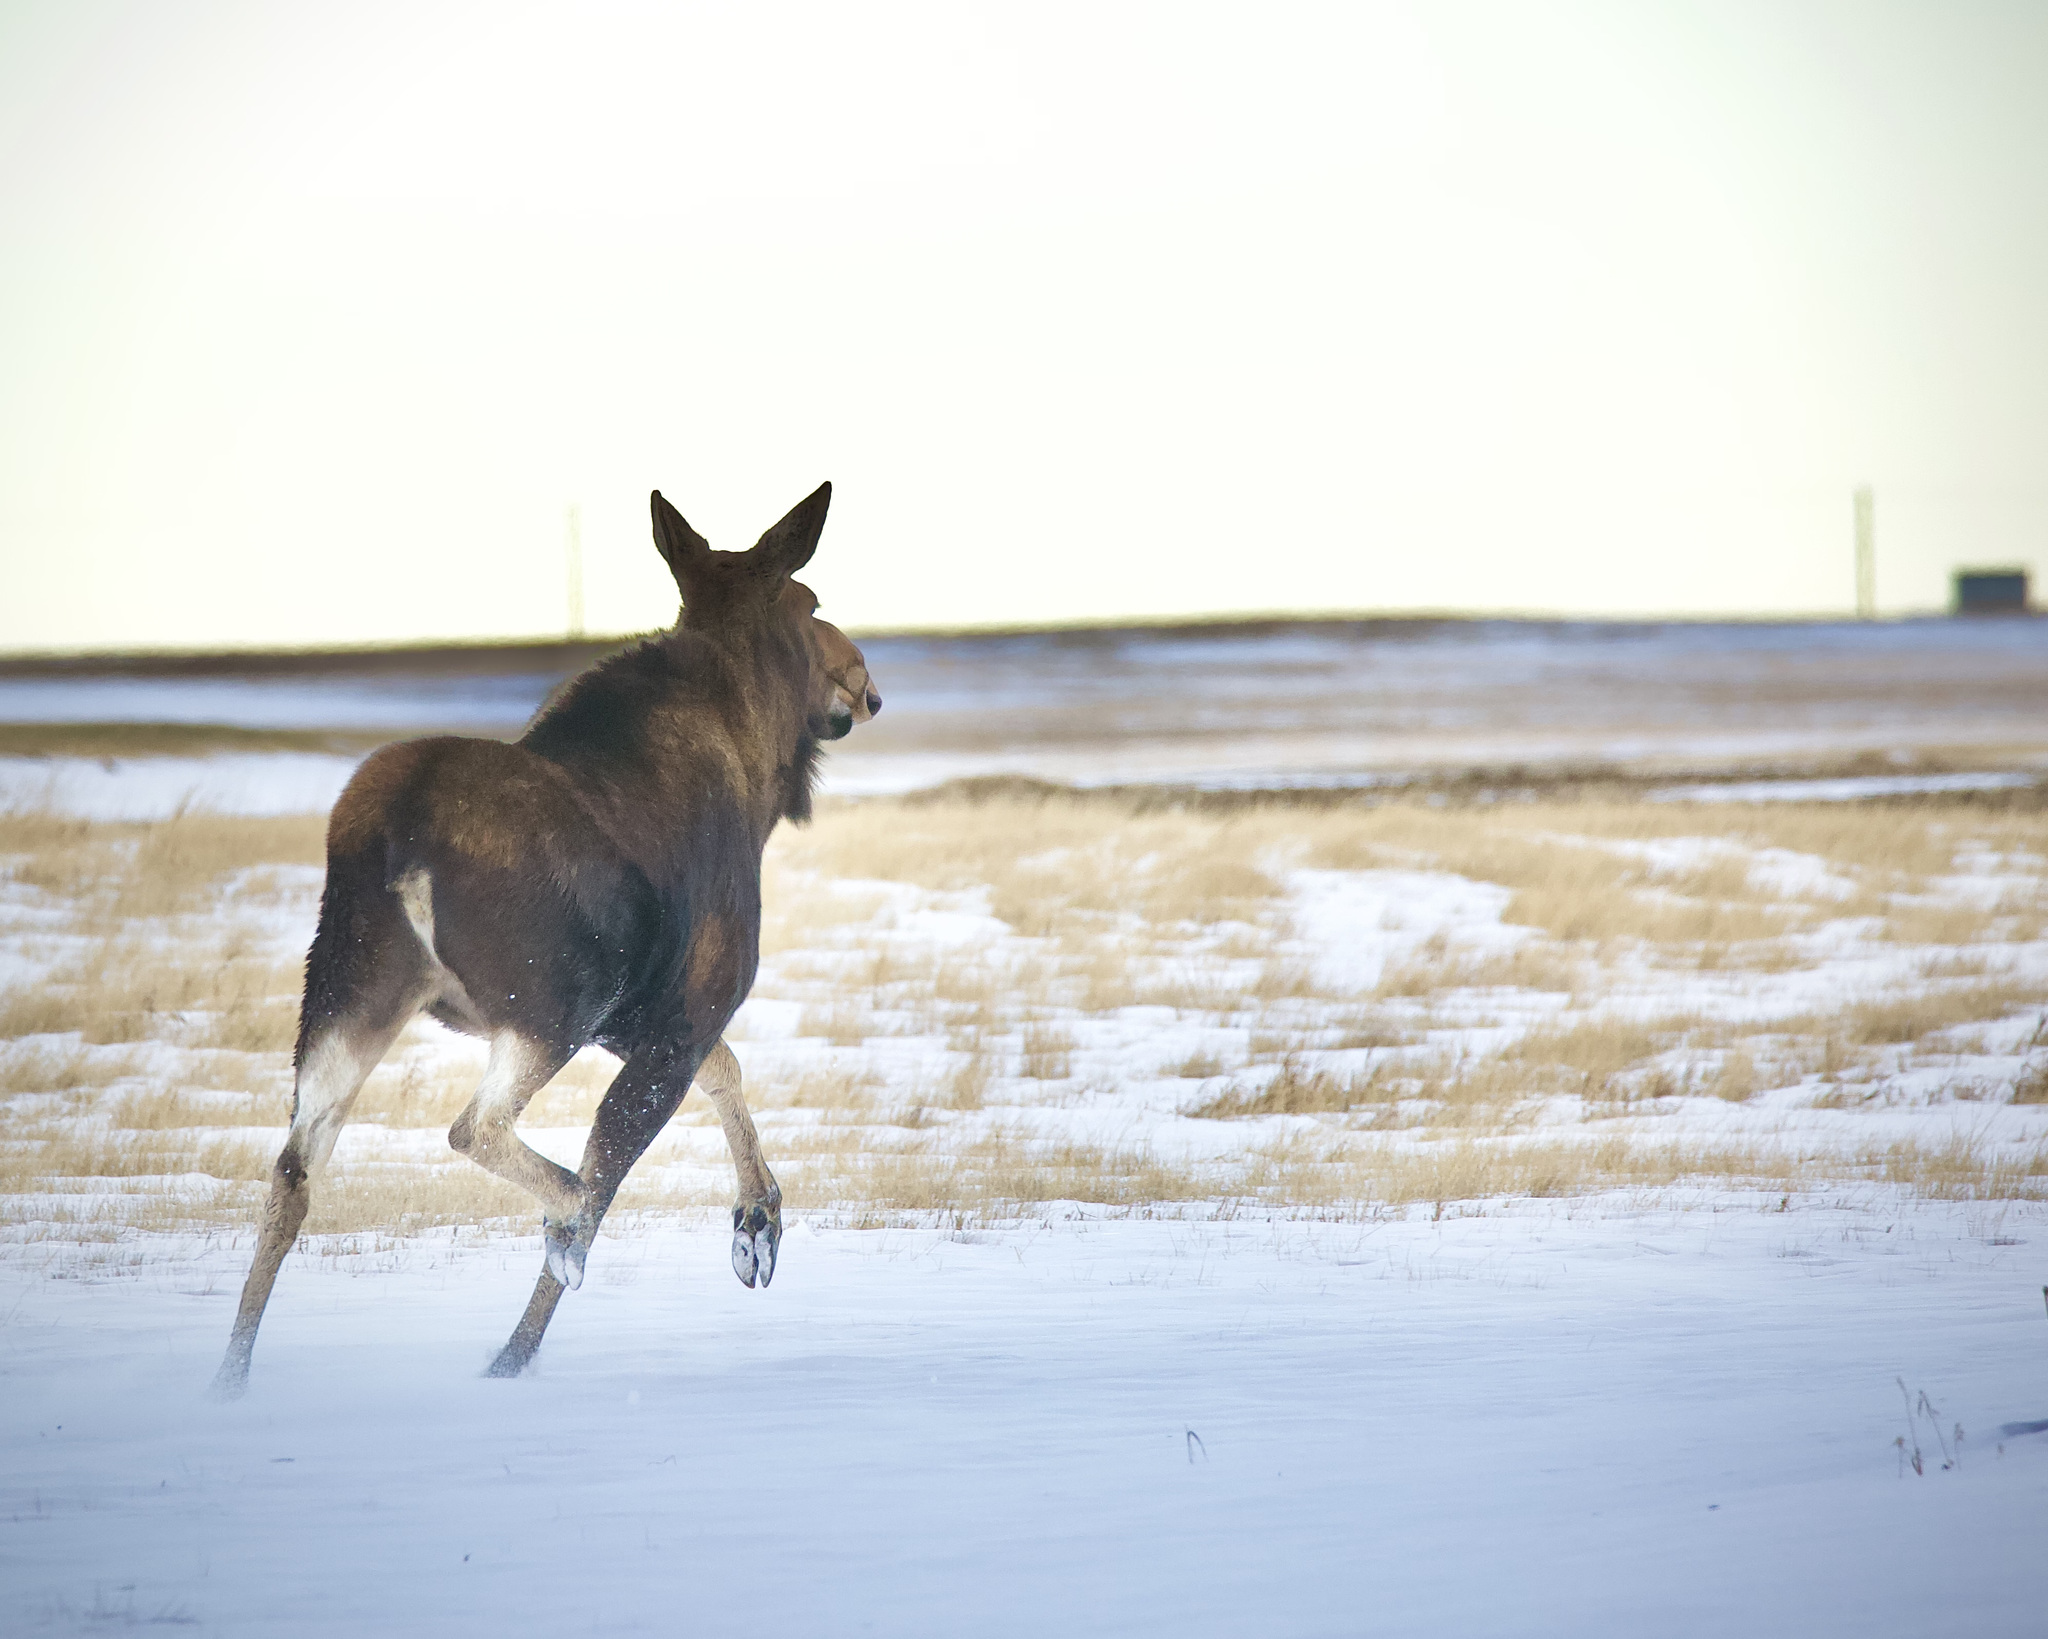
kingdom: Animalia
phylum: Chordata
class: Mammalia
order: Artiodactyla
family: Cervidae
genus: Alces
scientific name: Alces alces
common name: Moose
